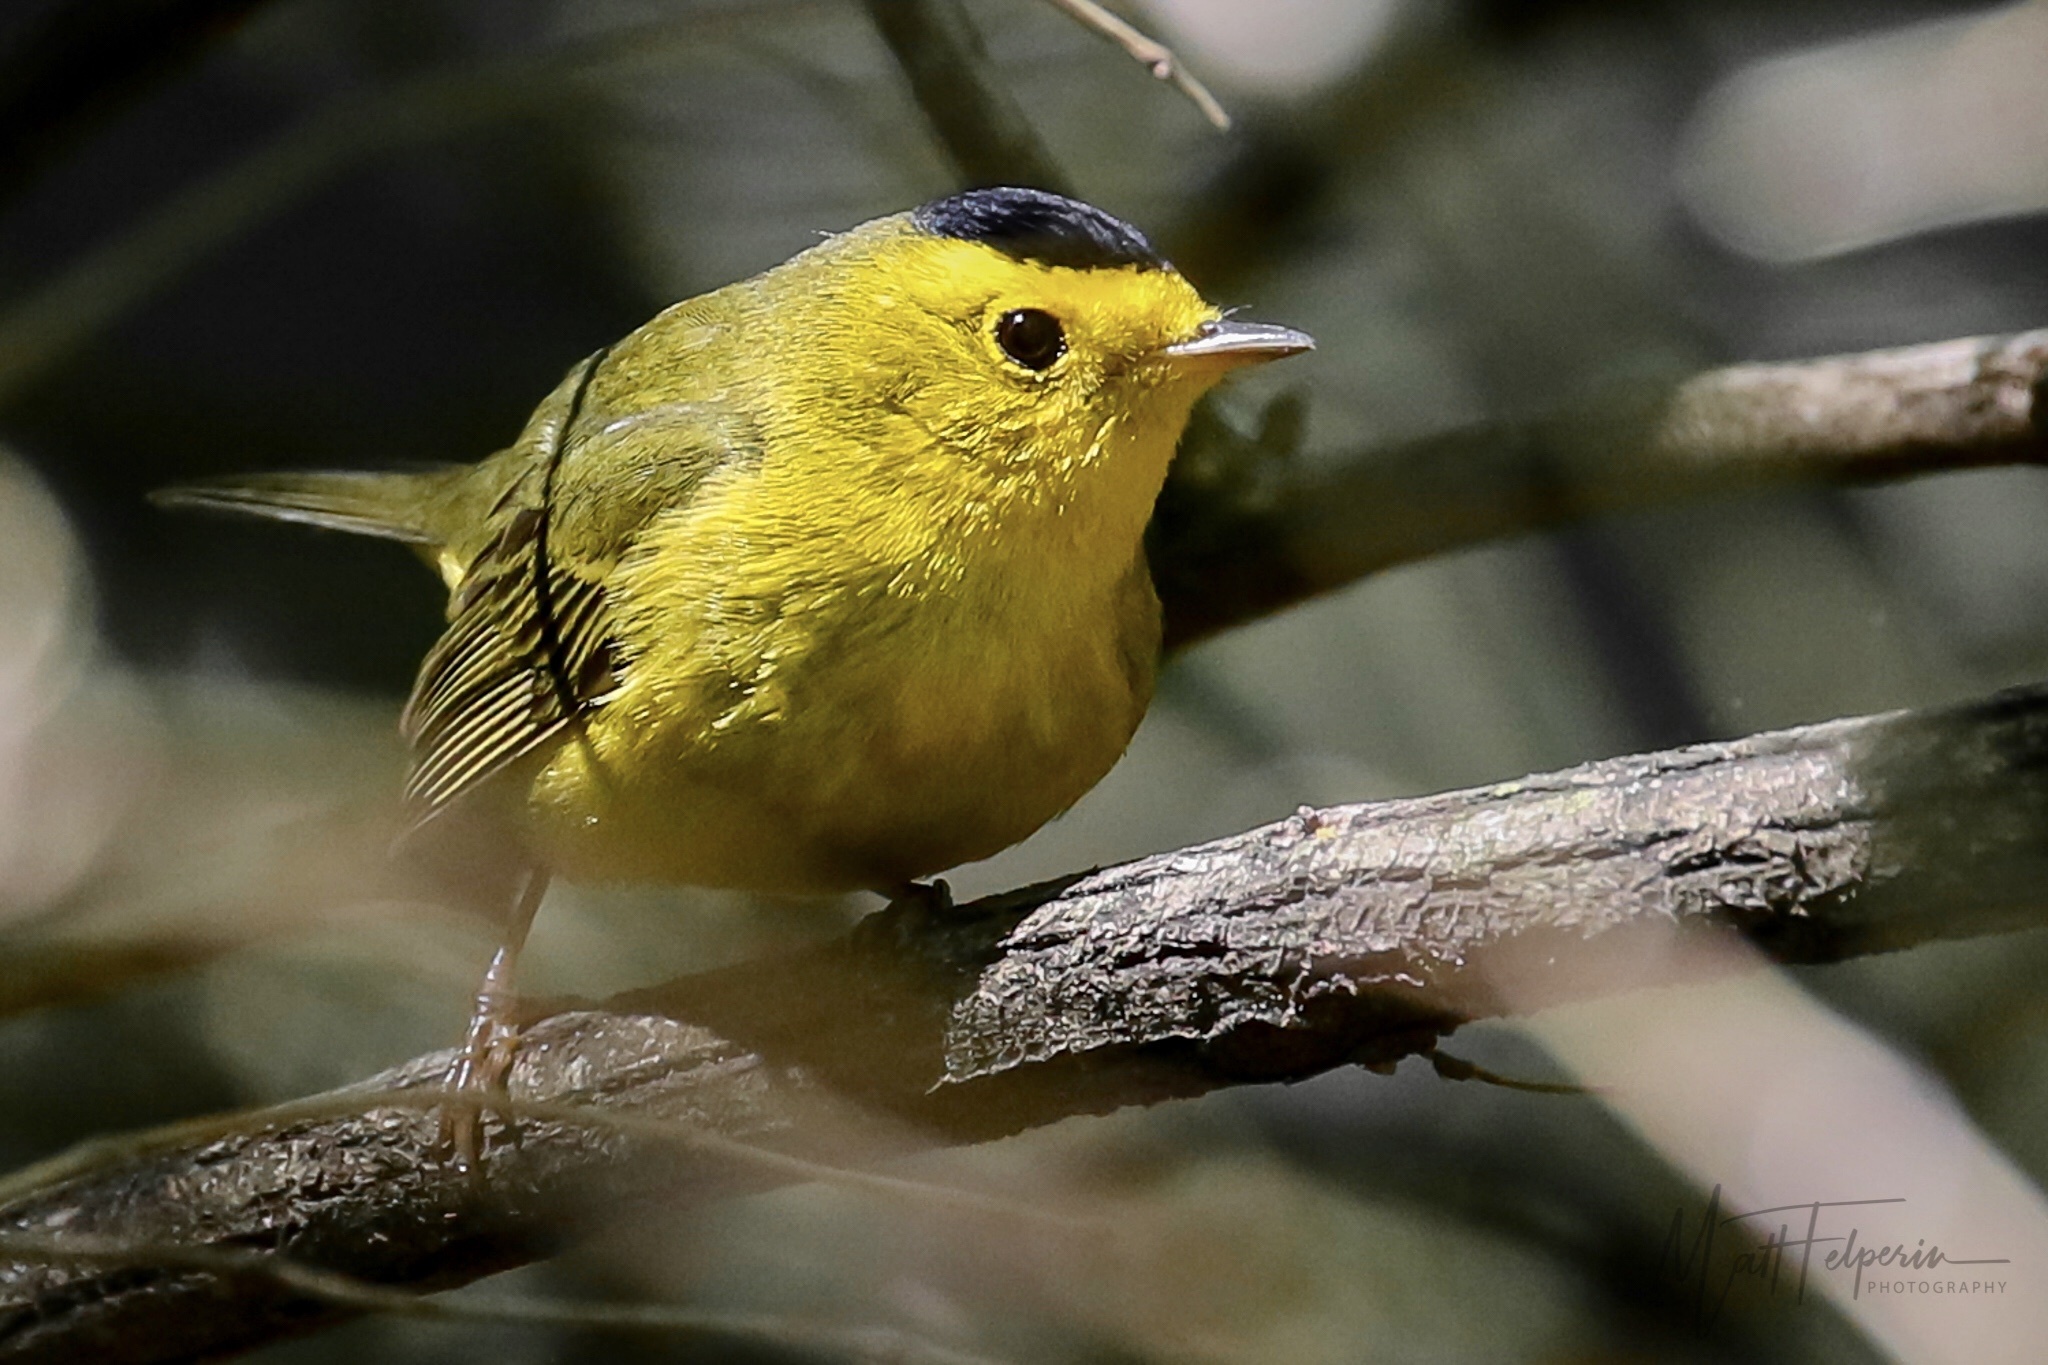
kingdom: Animalia
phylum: Chordata
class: Aves
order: Passeriformes
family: Parulidae
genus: Cardellina
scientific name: Cardellina pusilla
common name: Wilson's warbler
